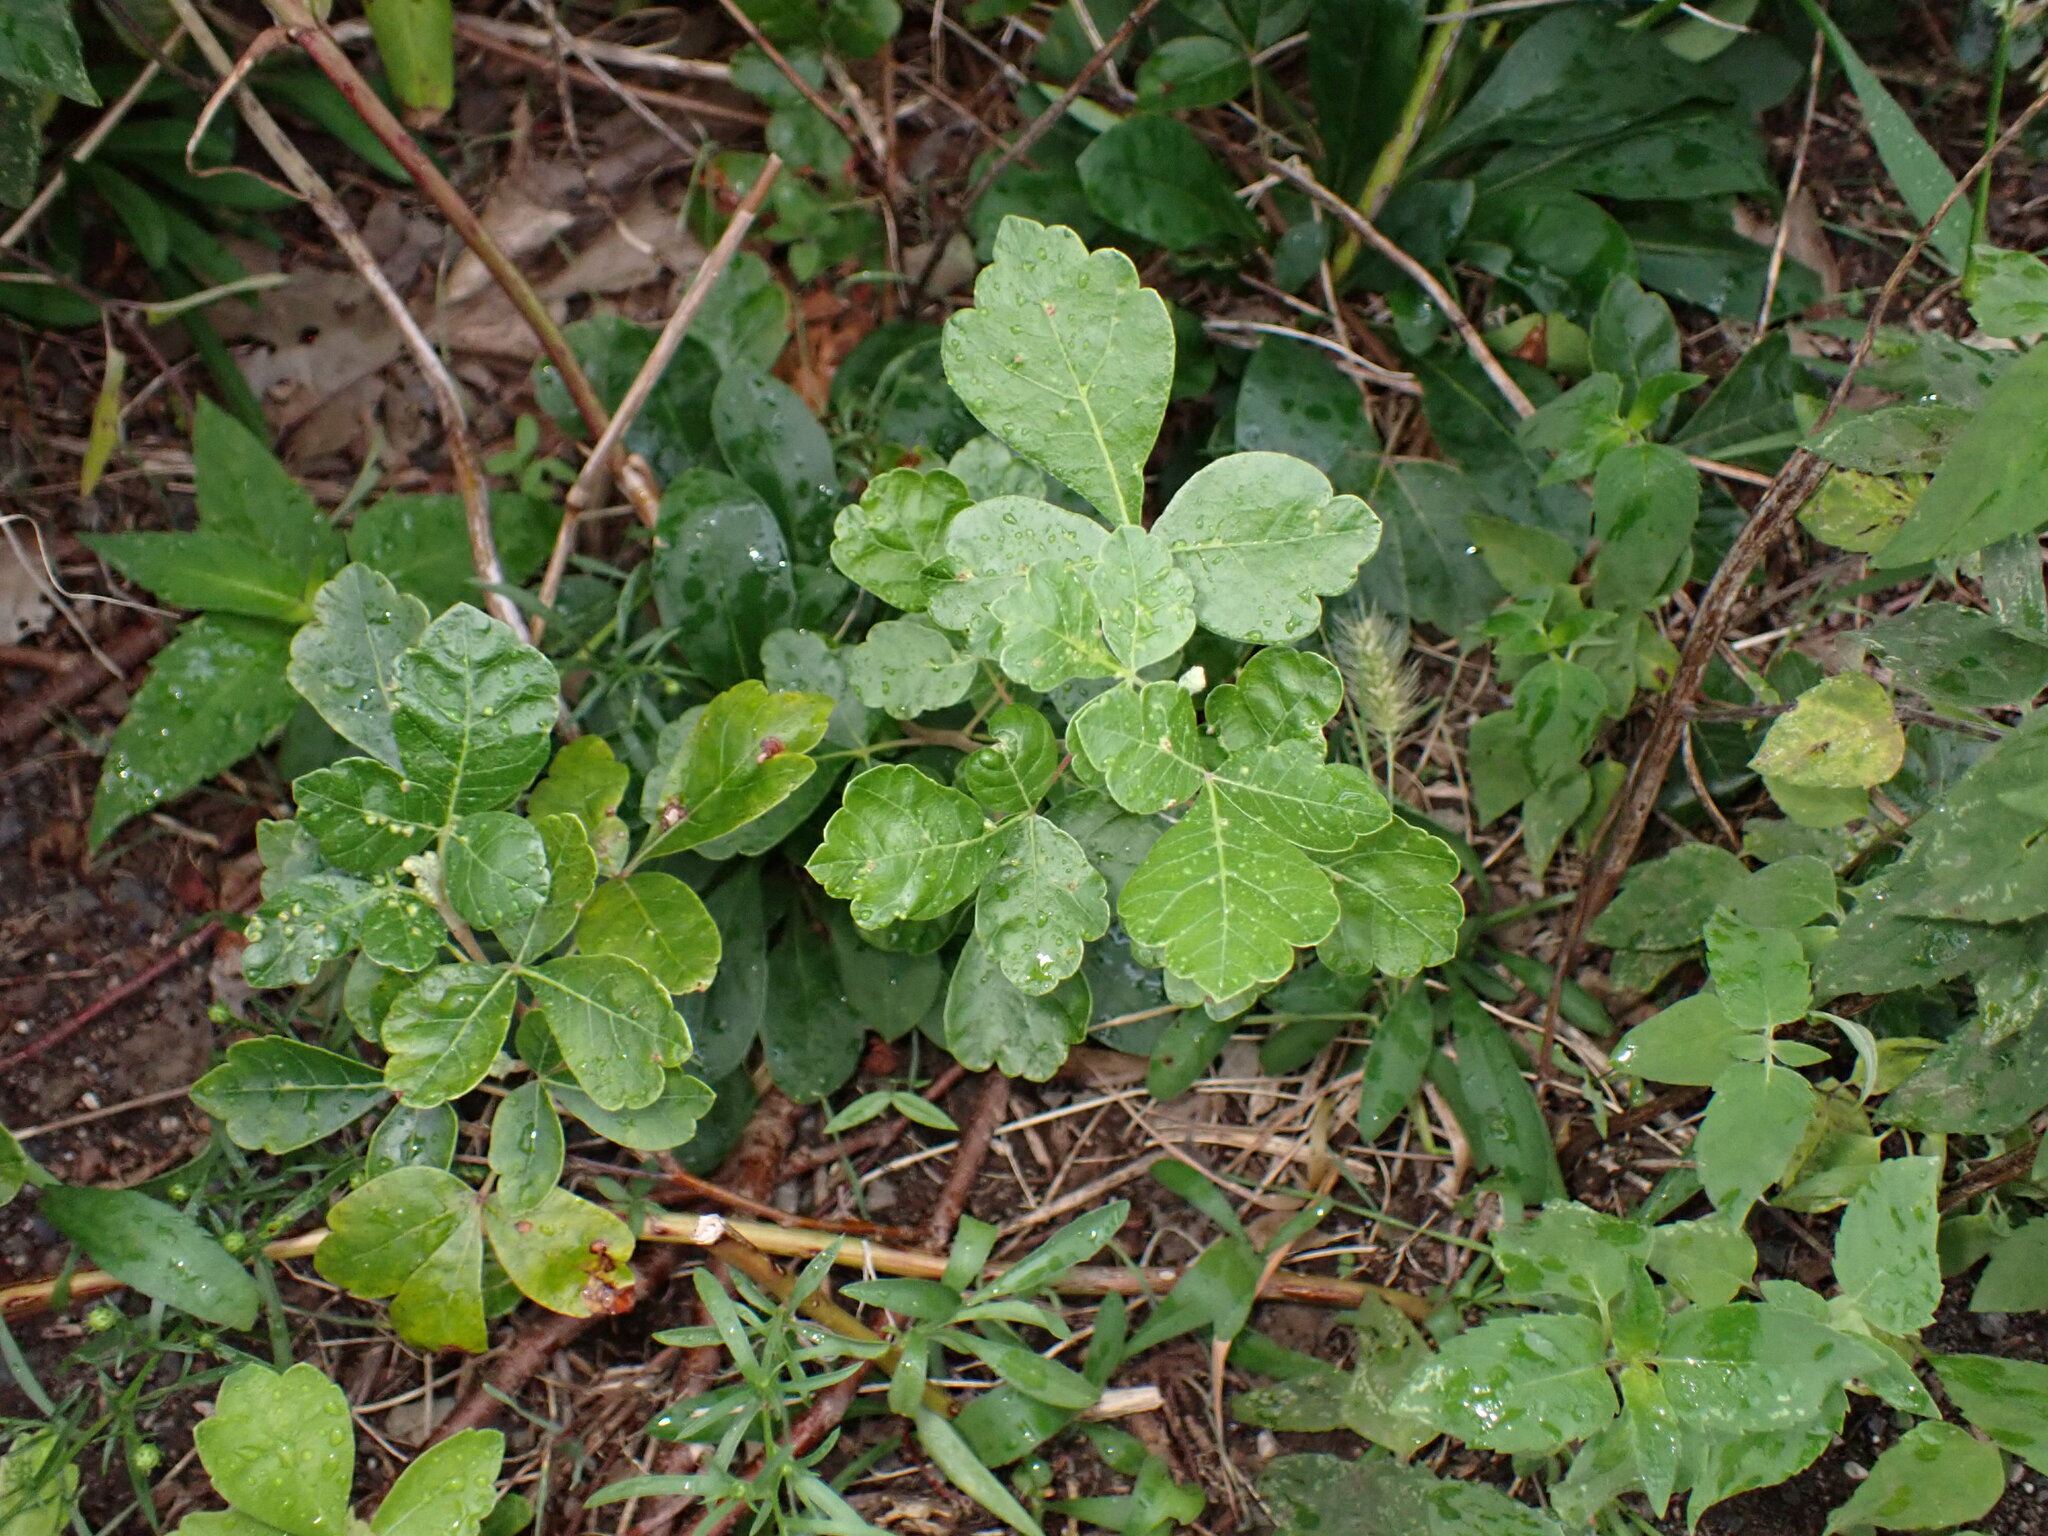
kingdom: Plantae
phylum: Tracheophyta
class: Magnoliopsida
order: Sapindales
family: Anacardiaceae
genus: Rhus
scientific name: Rhus aromatica
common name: Aromatic sumac
